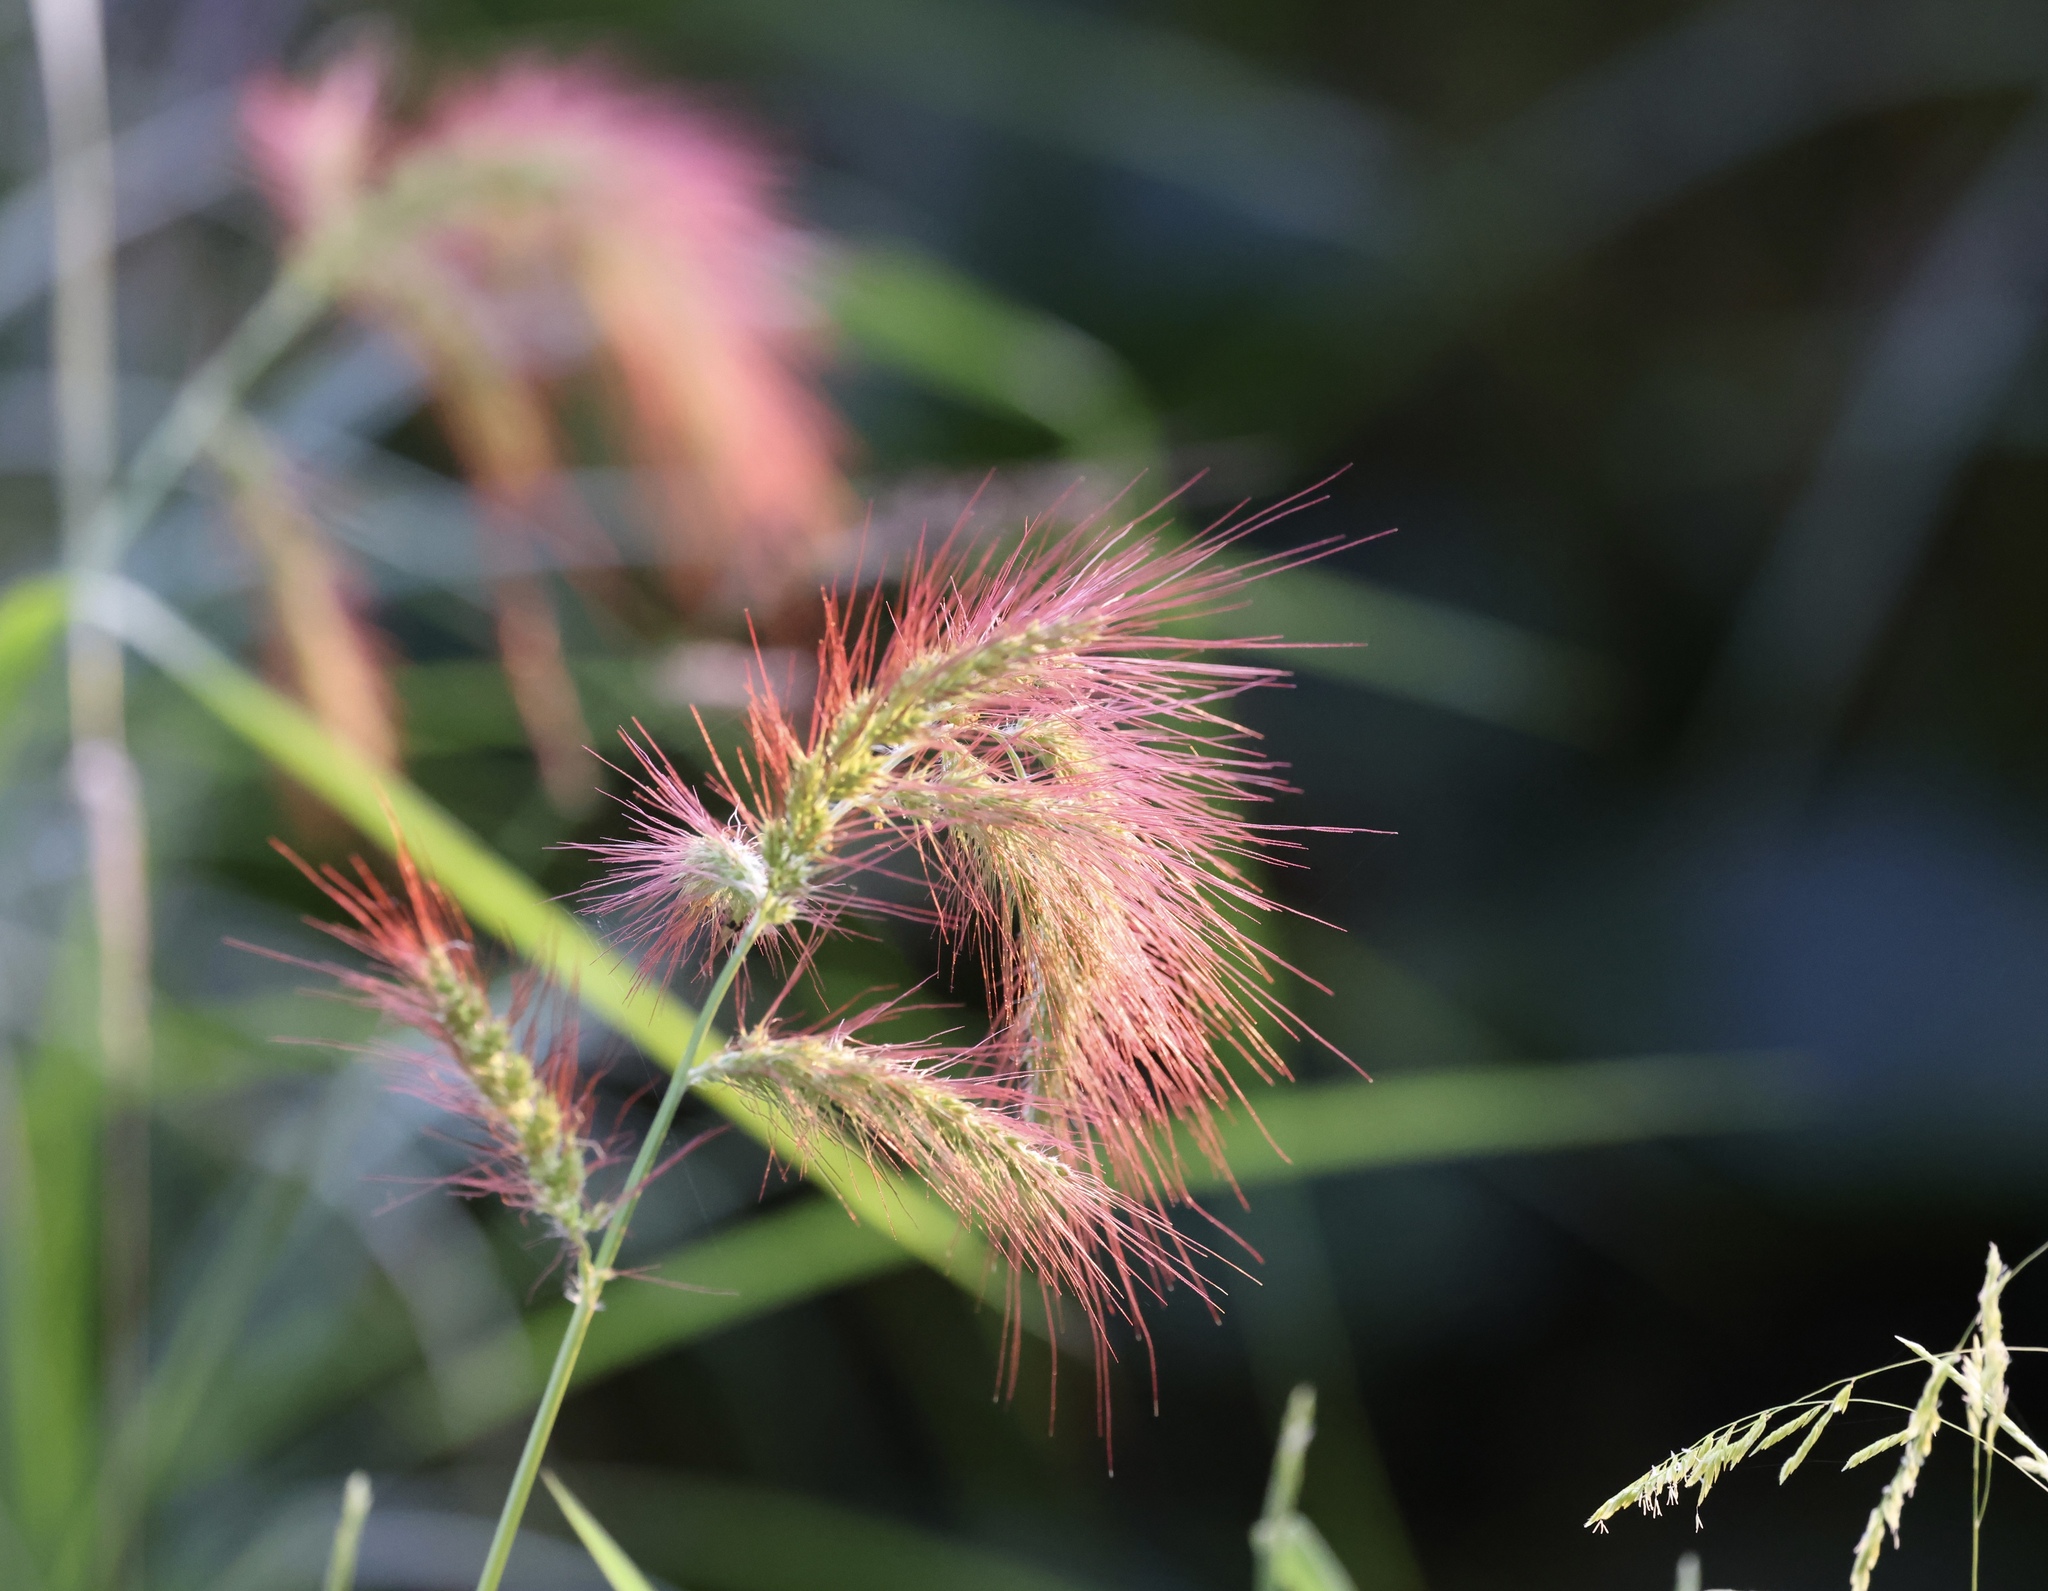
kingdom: Plantae
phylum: Tracheophyta
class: Liliopsida
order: Poales
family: Poaceae
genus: Echinochloa
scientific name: Echinochloa crus-galli
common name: Cockspur
